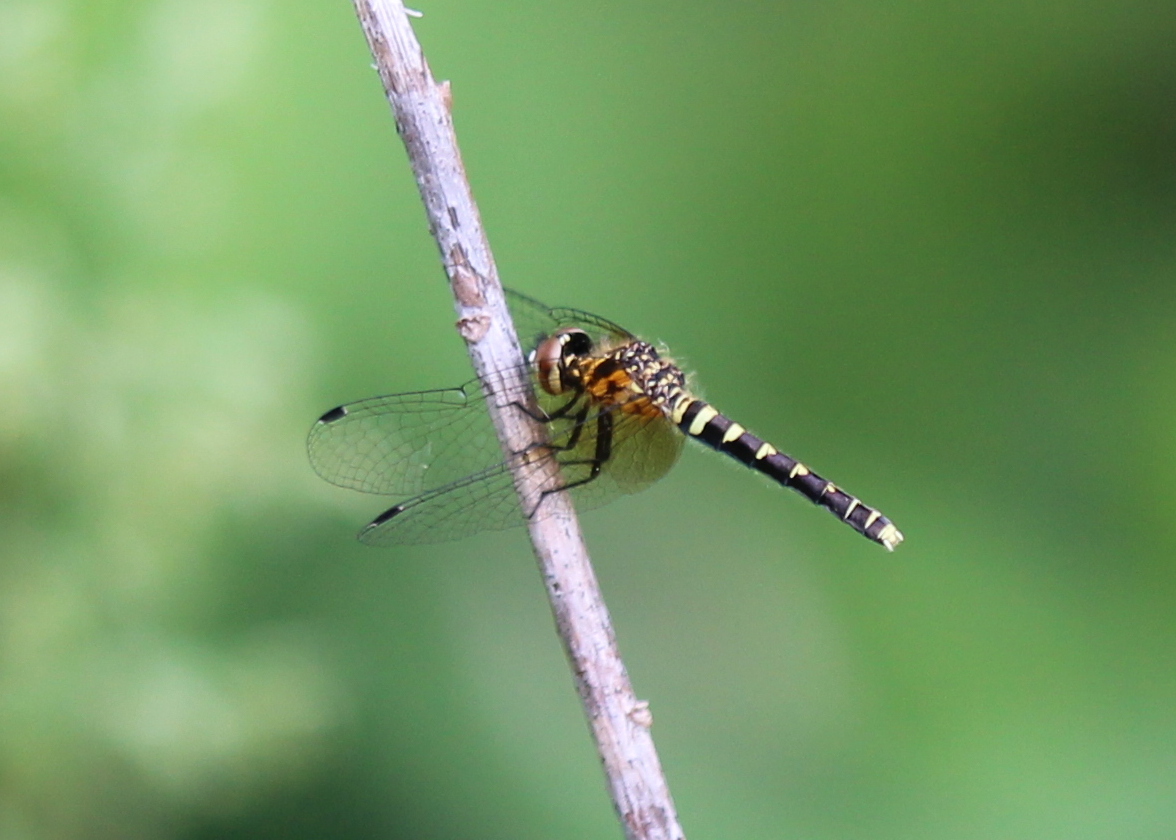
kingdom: Animalia
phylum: Arthropoda
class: Insecta
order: Odonata
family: Libellulidae
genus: Nannothemis
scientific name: Nannothemis bella
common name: Elfin skimmer
